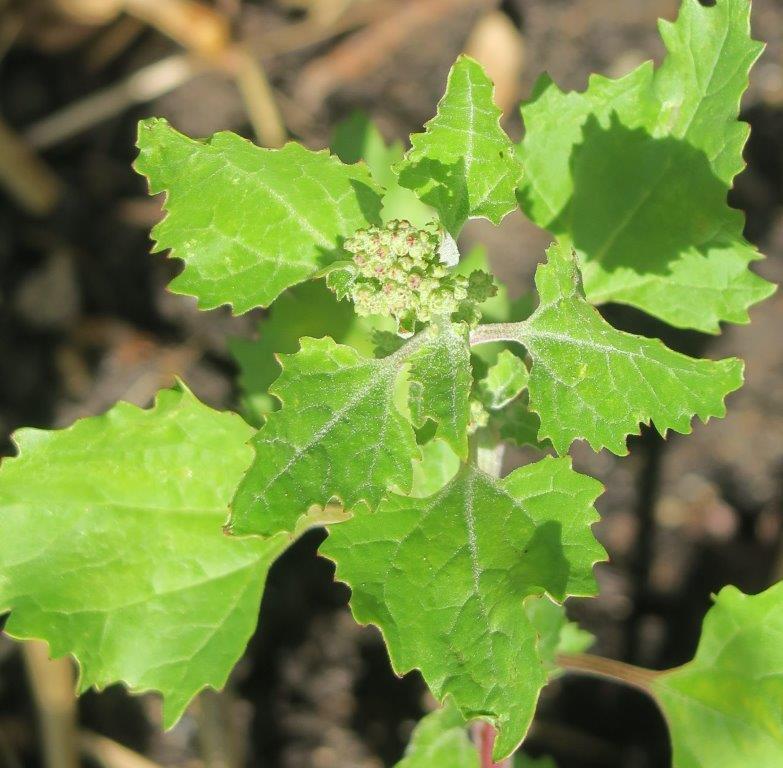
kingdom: Plantae
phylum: Tracheophyta
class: Magnoliopsida
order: Caryophyllales
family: Amaranthaceae
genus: Chenopodiastrum
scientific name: Chenopodiastrum murale
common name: Sowbane
